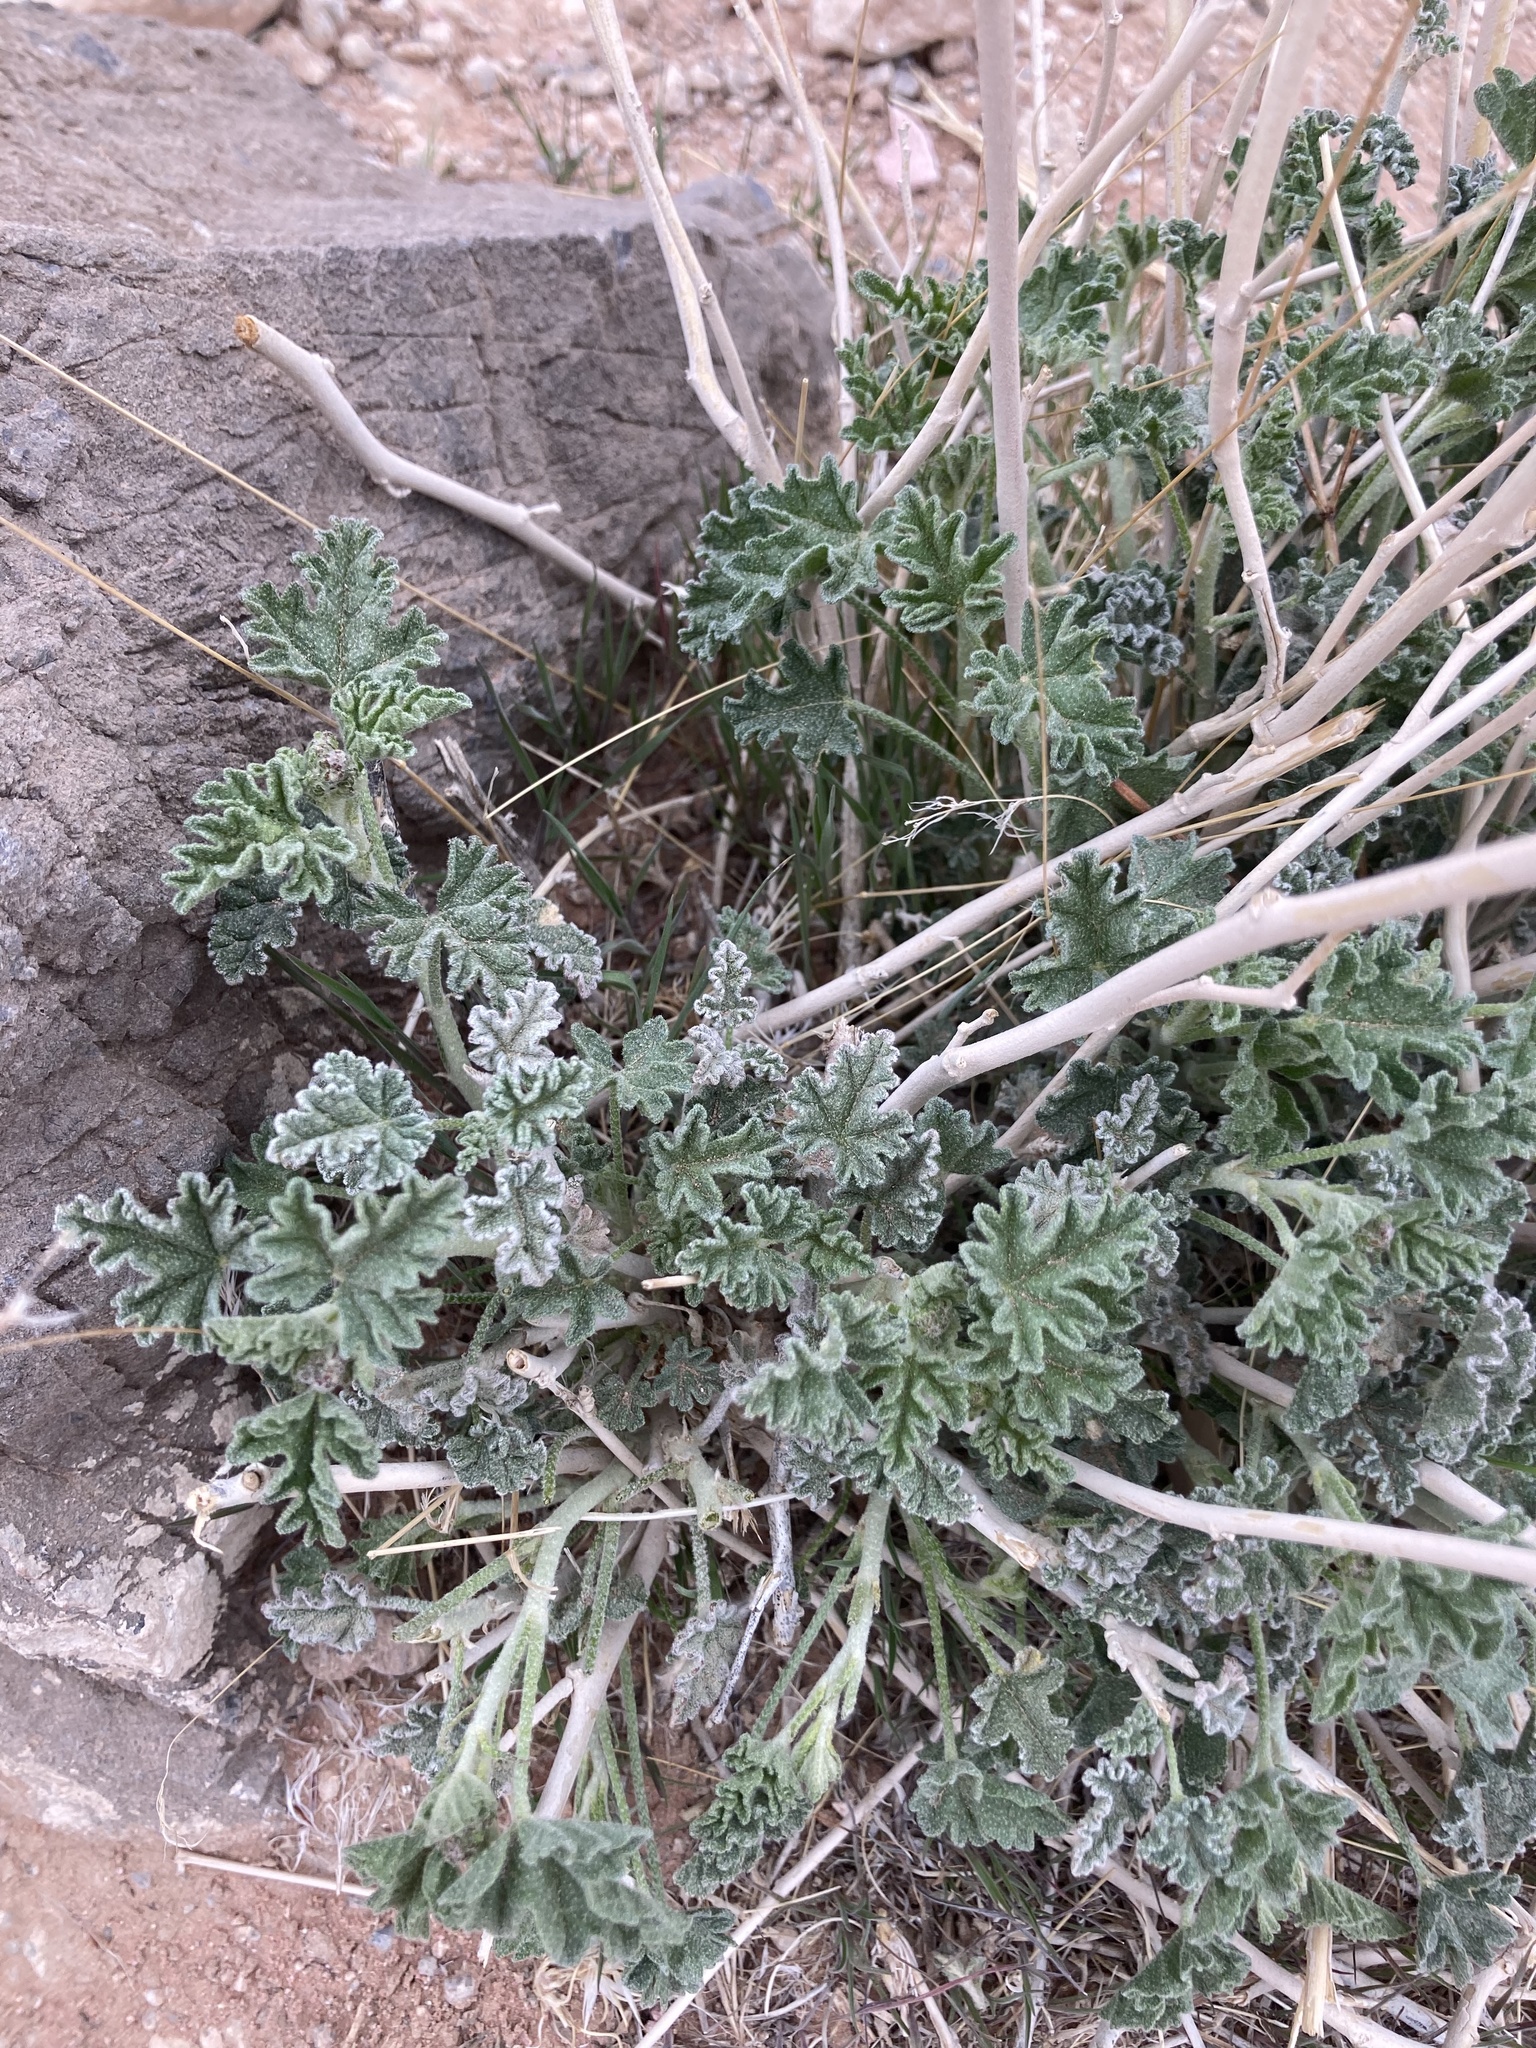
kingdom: Plantae
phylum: Tracheophyta
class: Magnoliopsida
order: Malvales
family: Malvaceae
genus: Sphaeralcea
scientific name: Sphaeralcea ambigua
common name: Apricot globe-mallow
